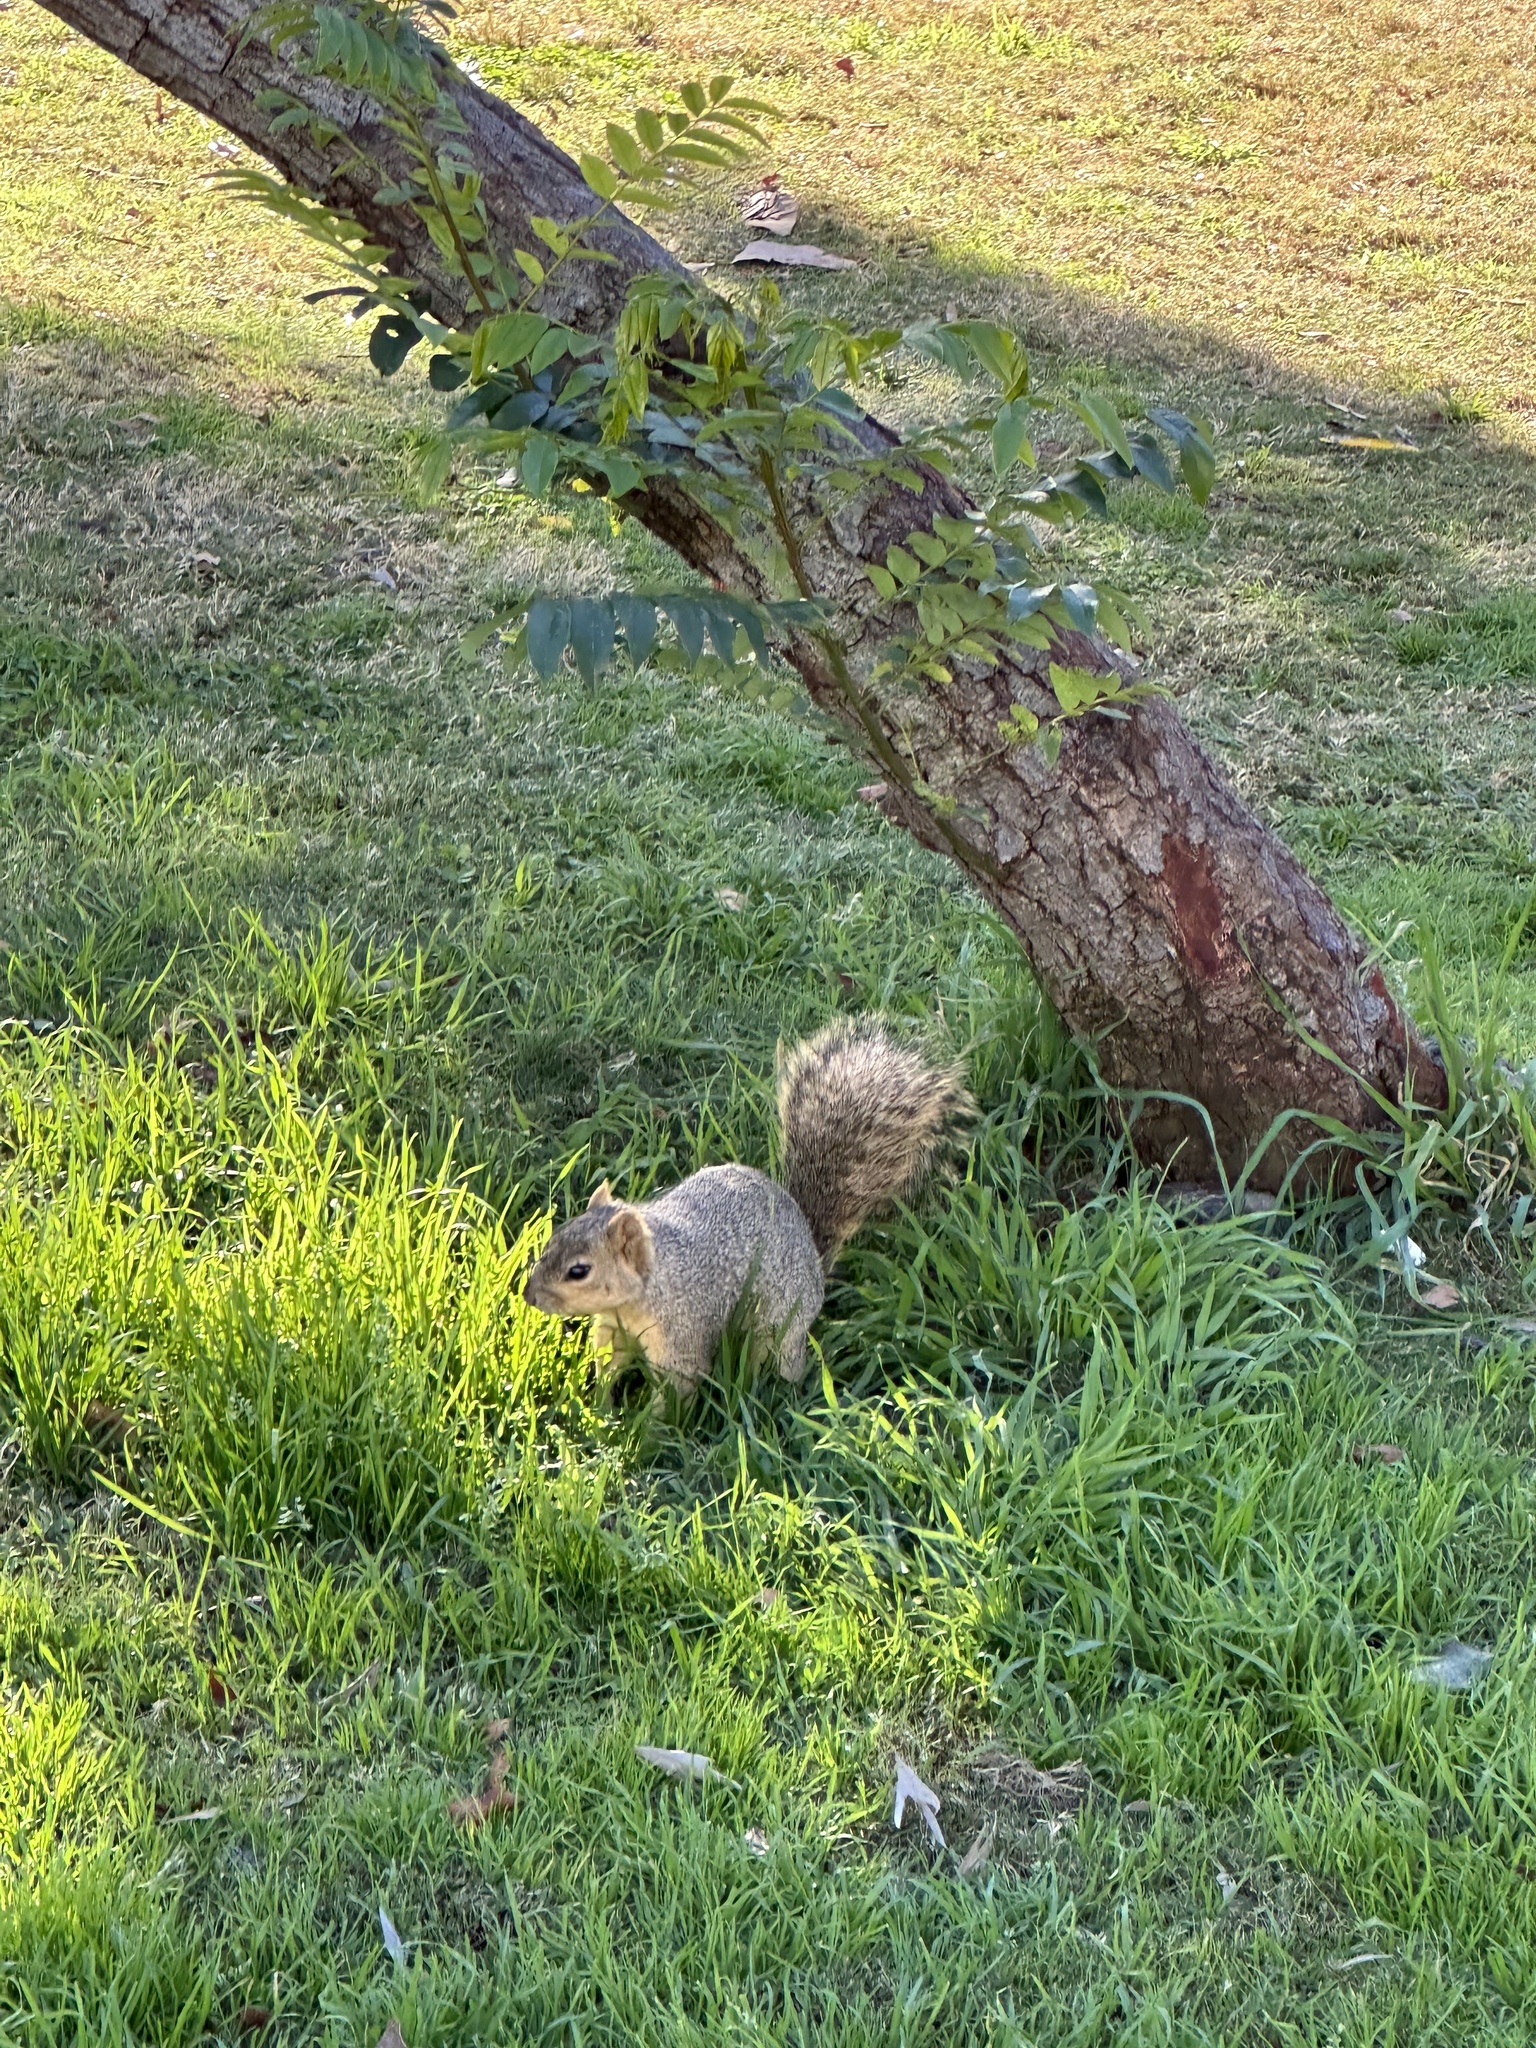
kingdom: Animalia
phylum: Chordata
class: Mammalia
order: Rodentia
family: Sciuridae
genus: Sciurus
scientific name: Sciurus niger
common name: Fox squirrel
